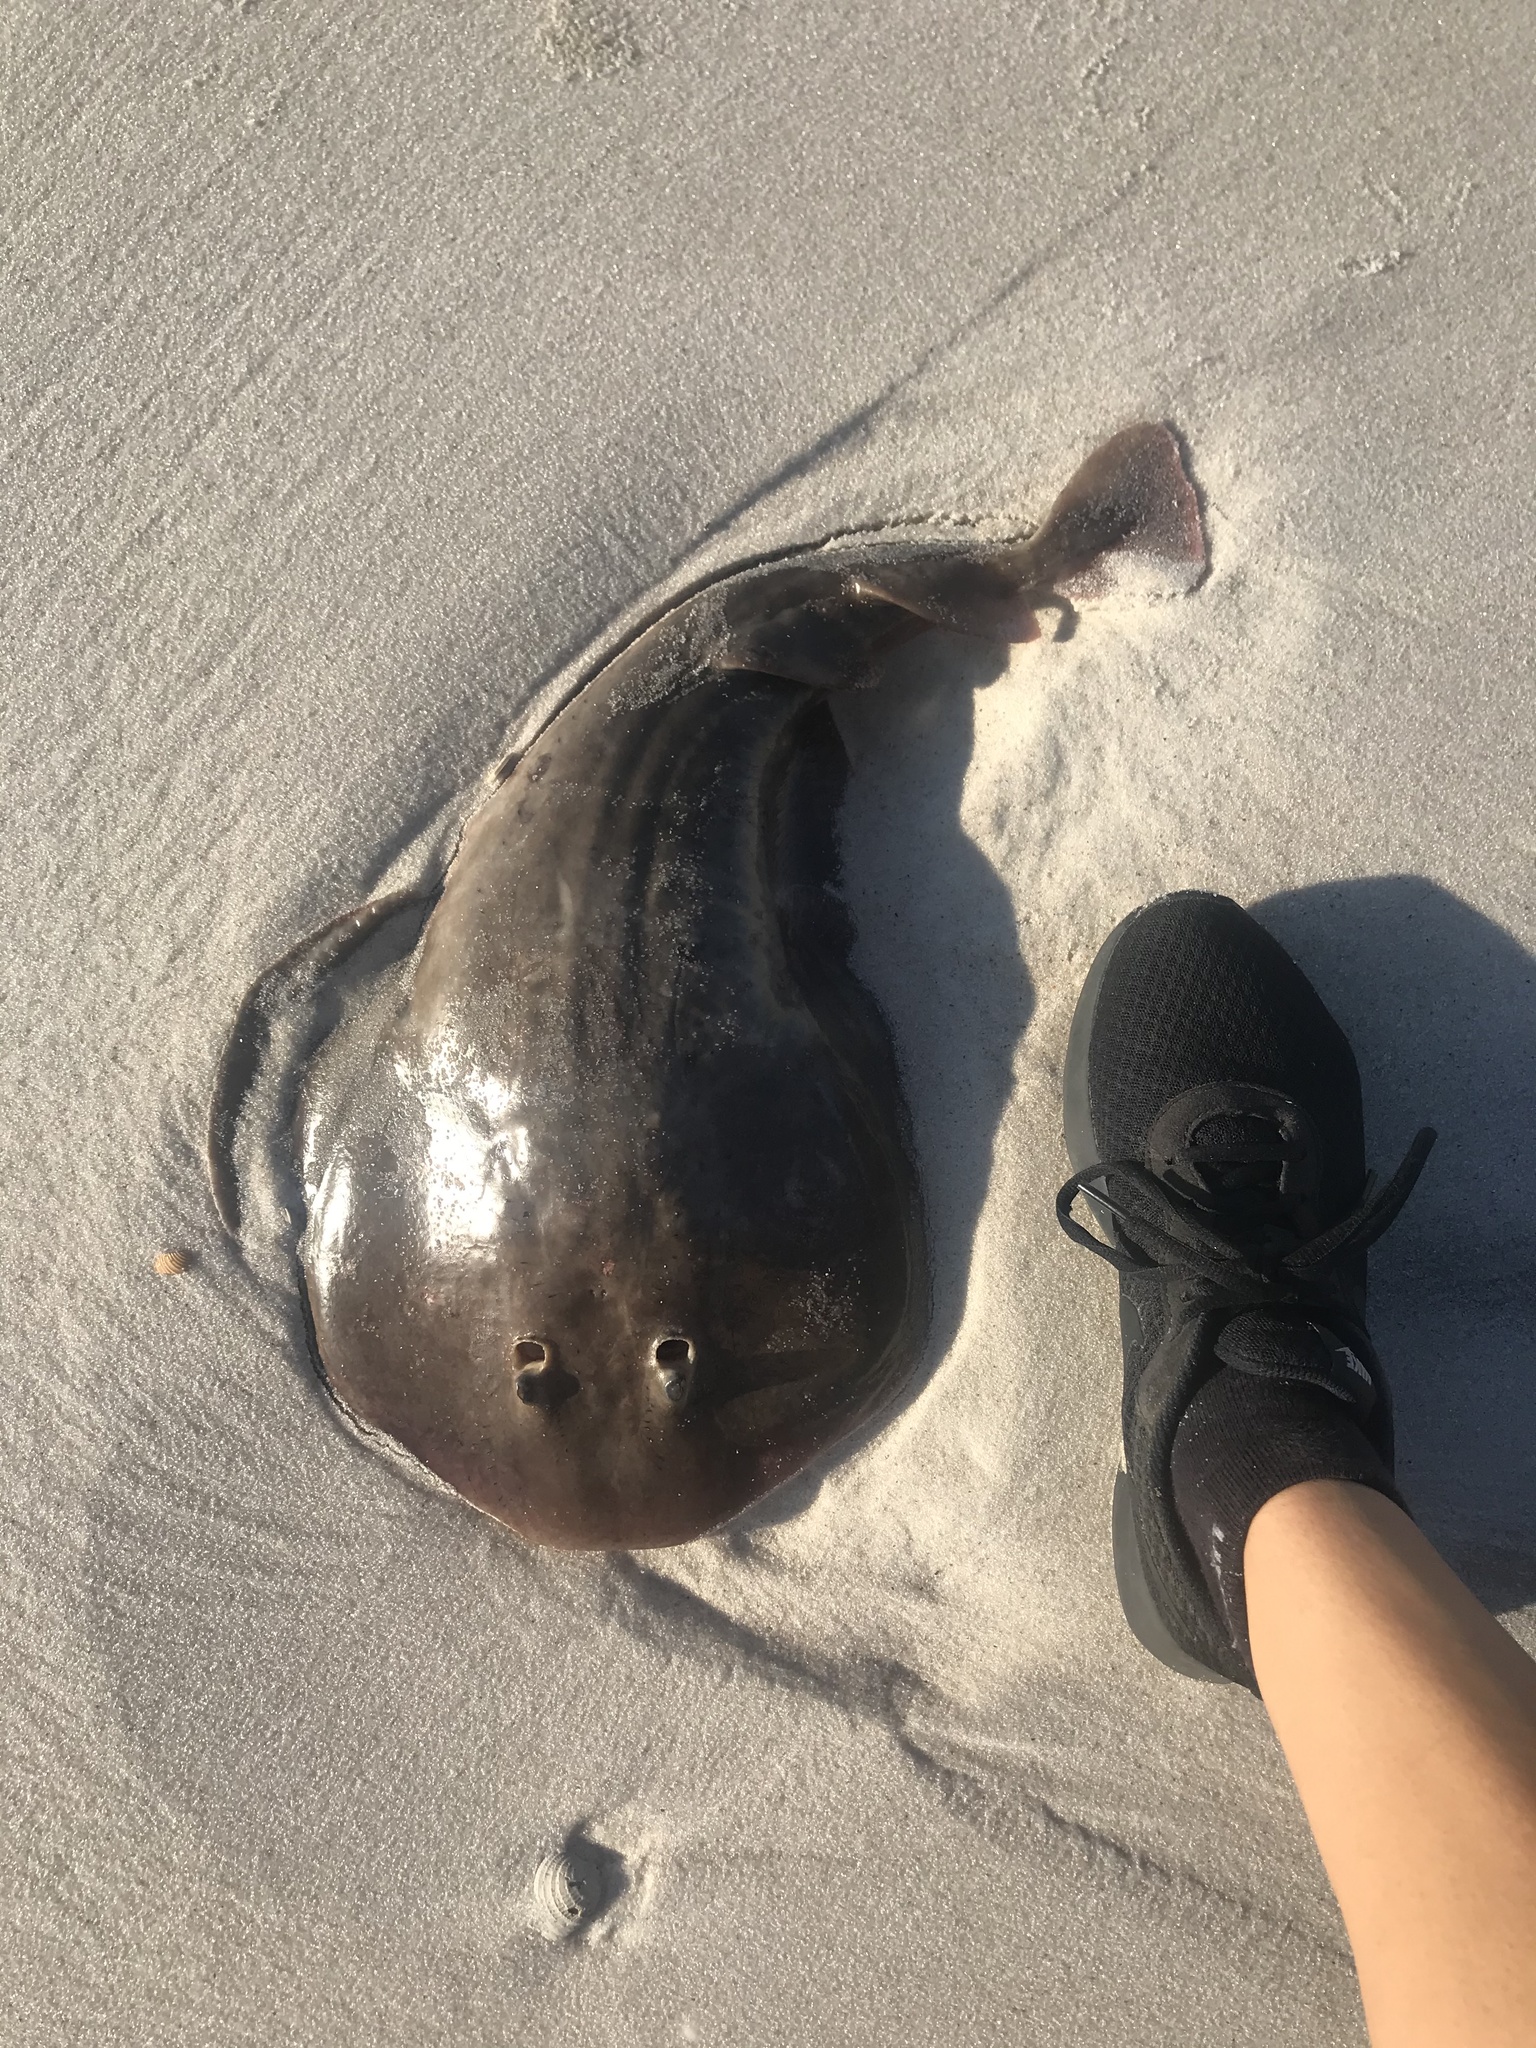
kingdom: Animalia
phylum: Chordata
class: Elasmobranchii
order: Torpediniformes
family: Narcinidae
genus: Narcine
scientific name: Narcine bancroftii
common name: Lesser electric ray
